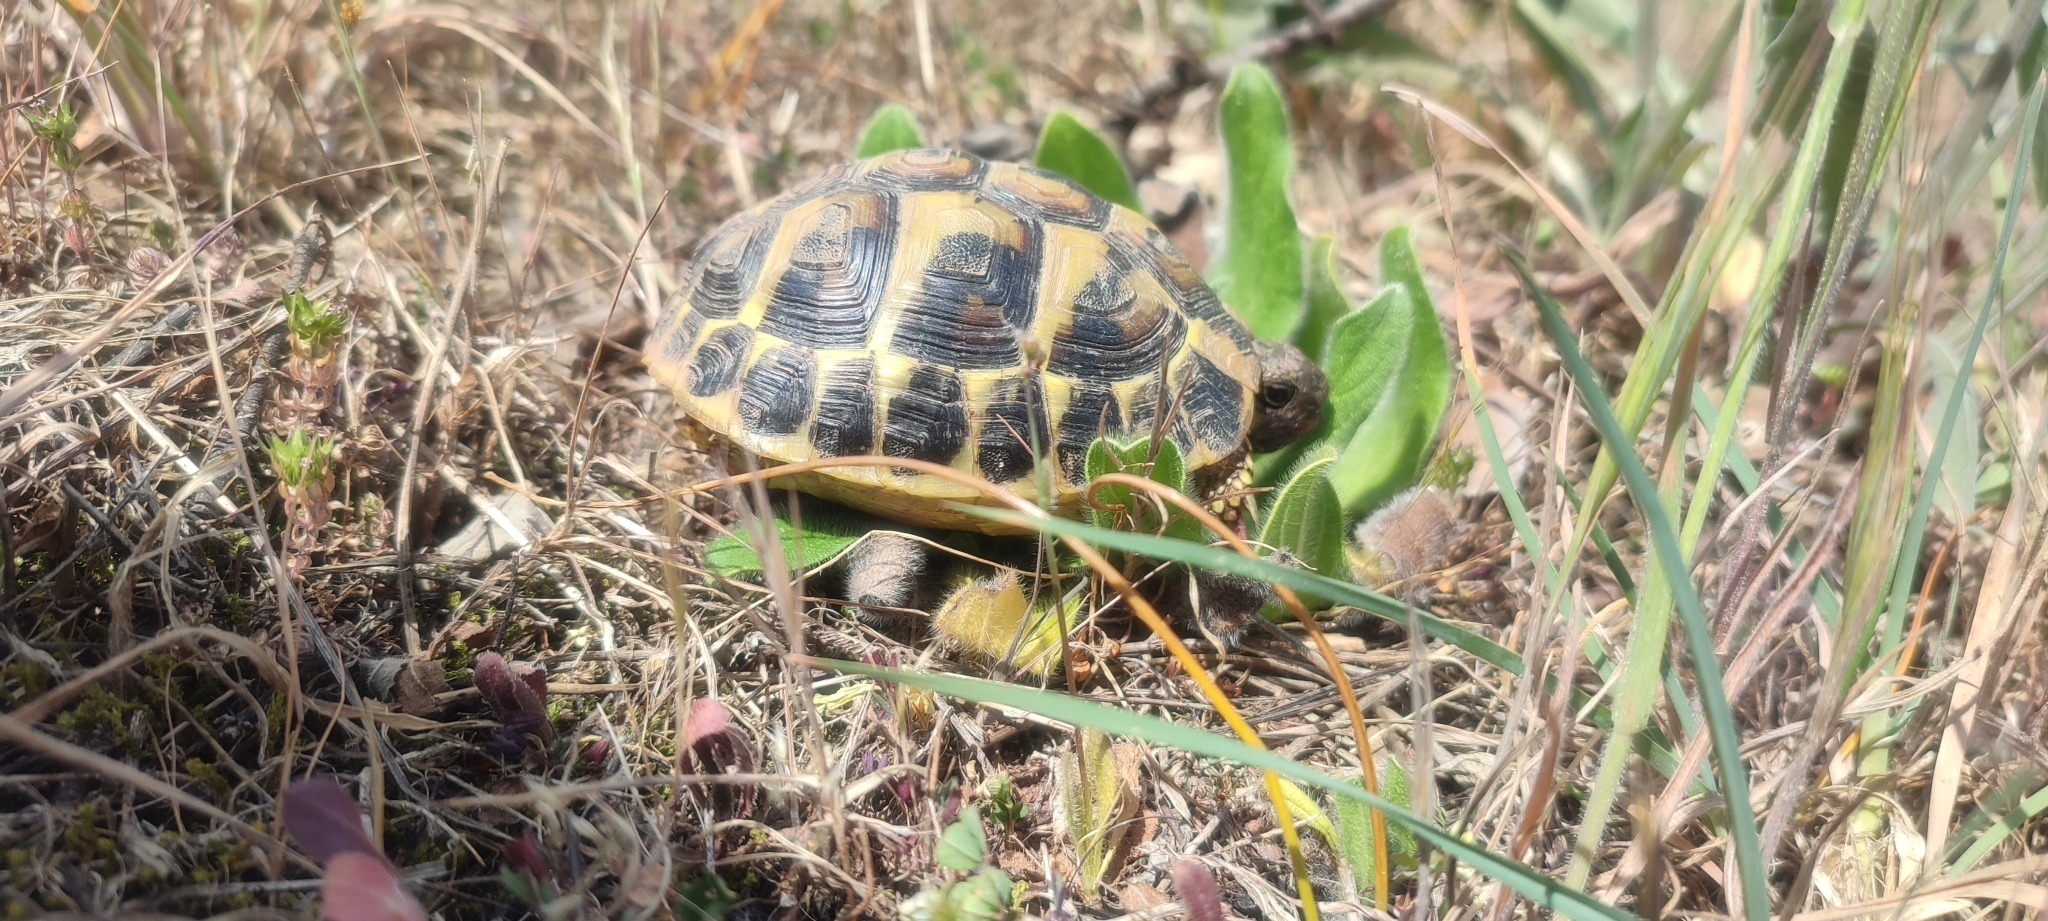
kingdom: Animalia
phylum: Chordata
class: Testudines
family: Testudinidae
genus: Testudo
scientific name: Testudo hermanni
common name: Hermann's tortoise
